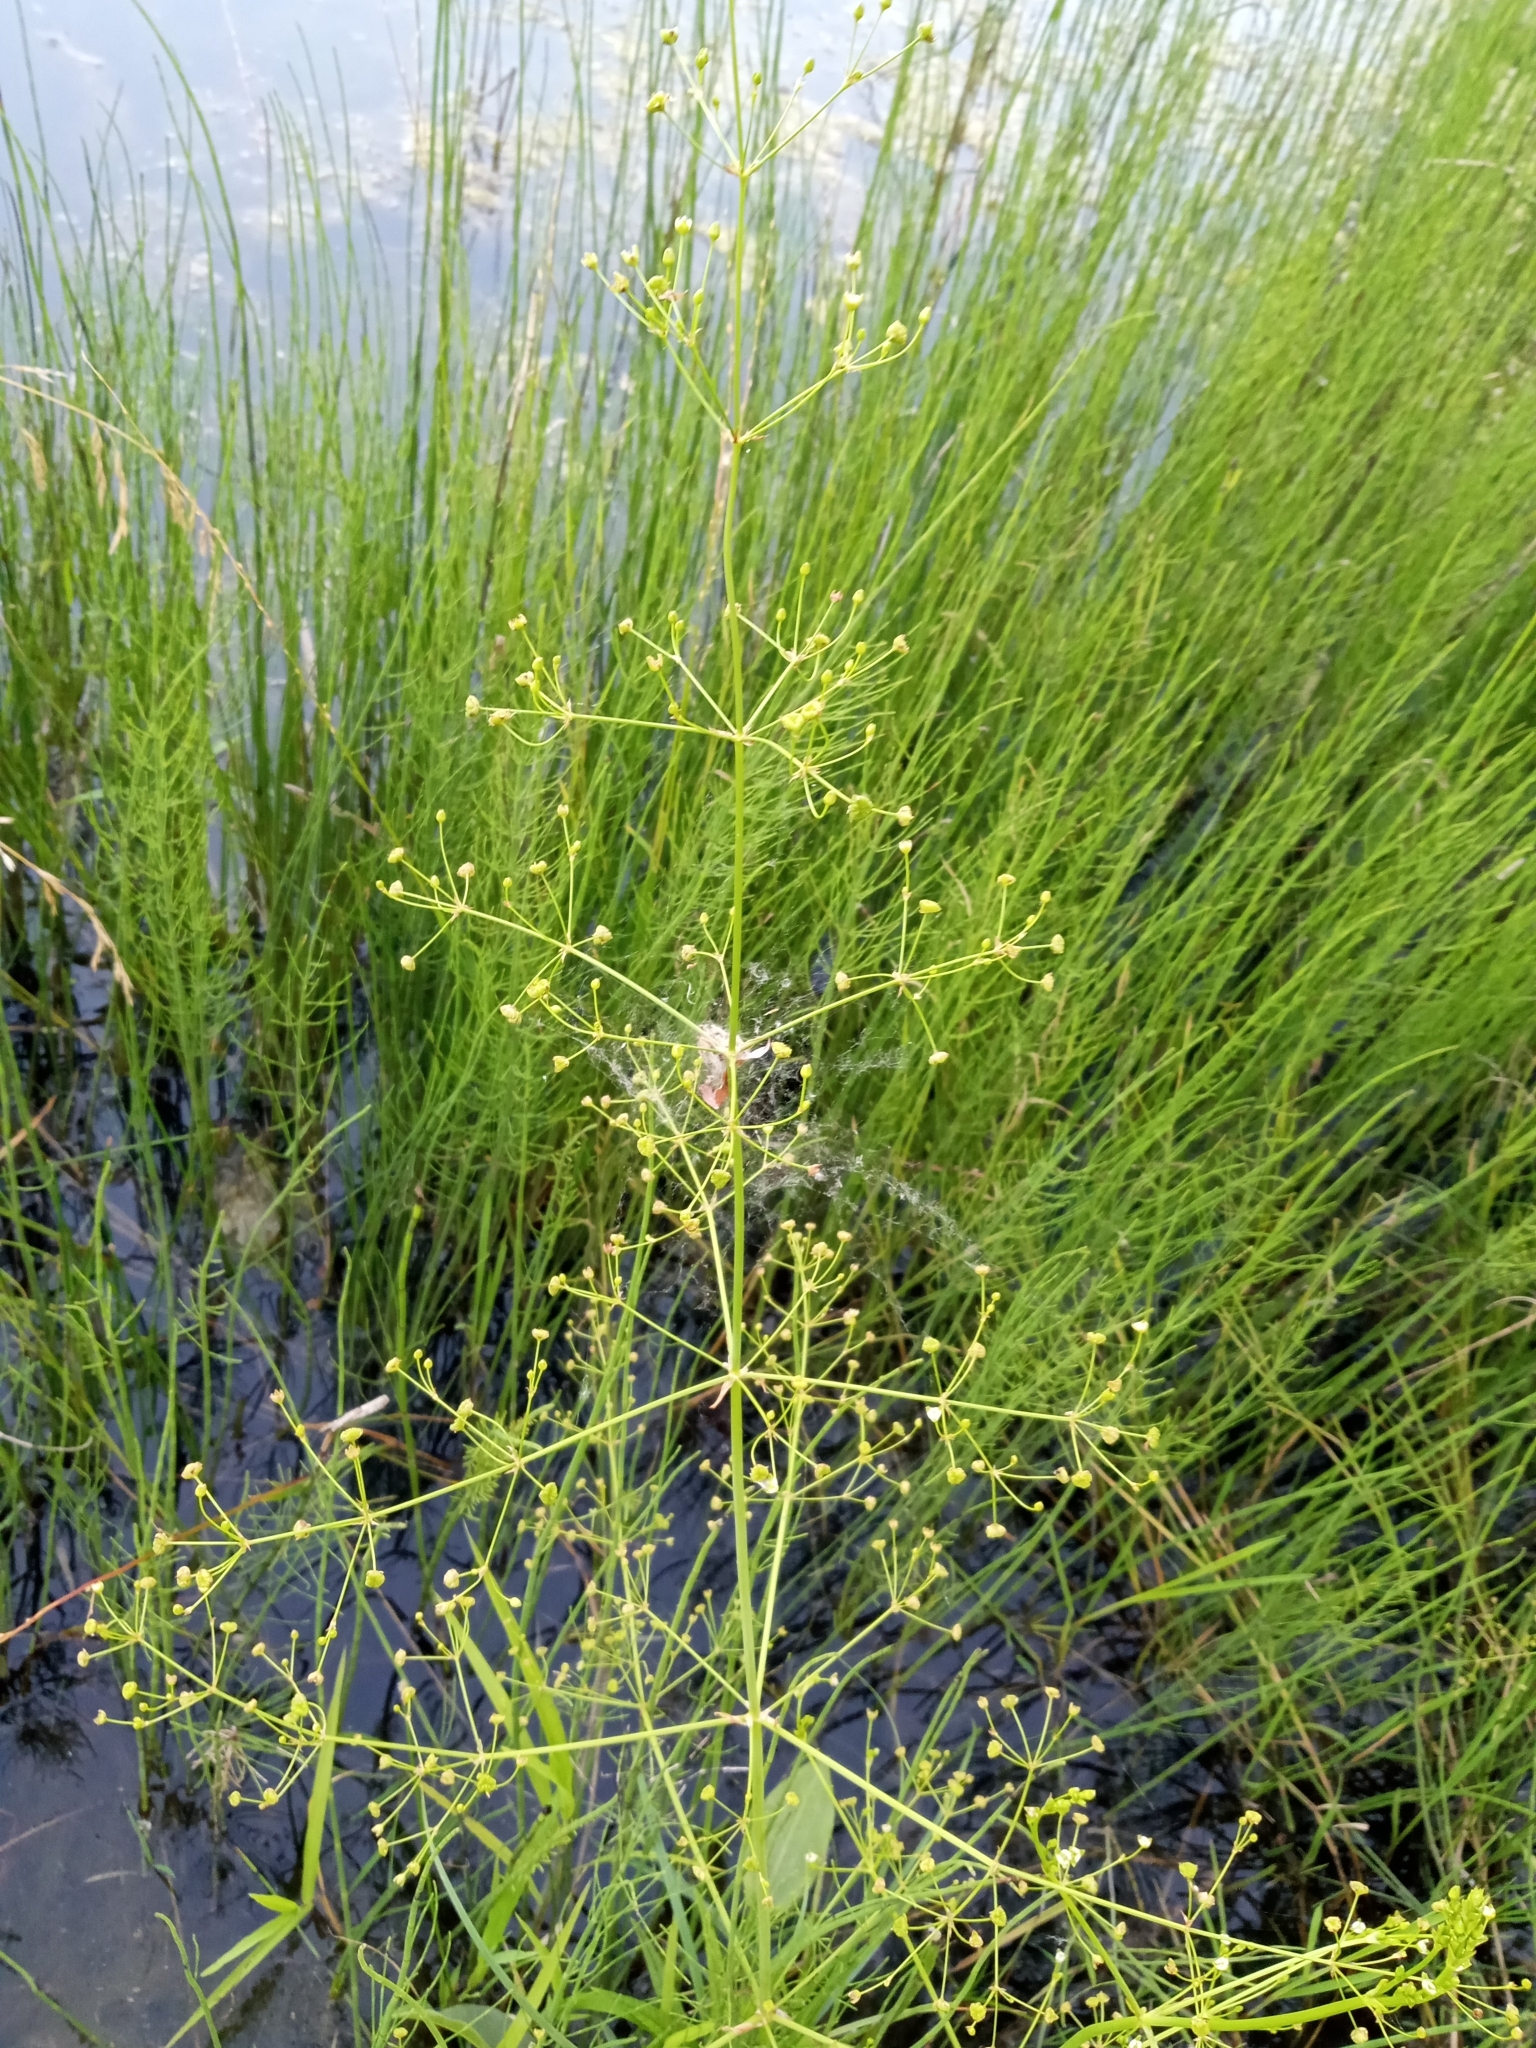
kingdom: Plantae
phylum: Tracheophyta
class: Liliopsida
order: Alismatales
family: Alismataceae
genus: Alisma
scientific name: Alisma plantago-aquatica
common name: Water-plantain
